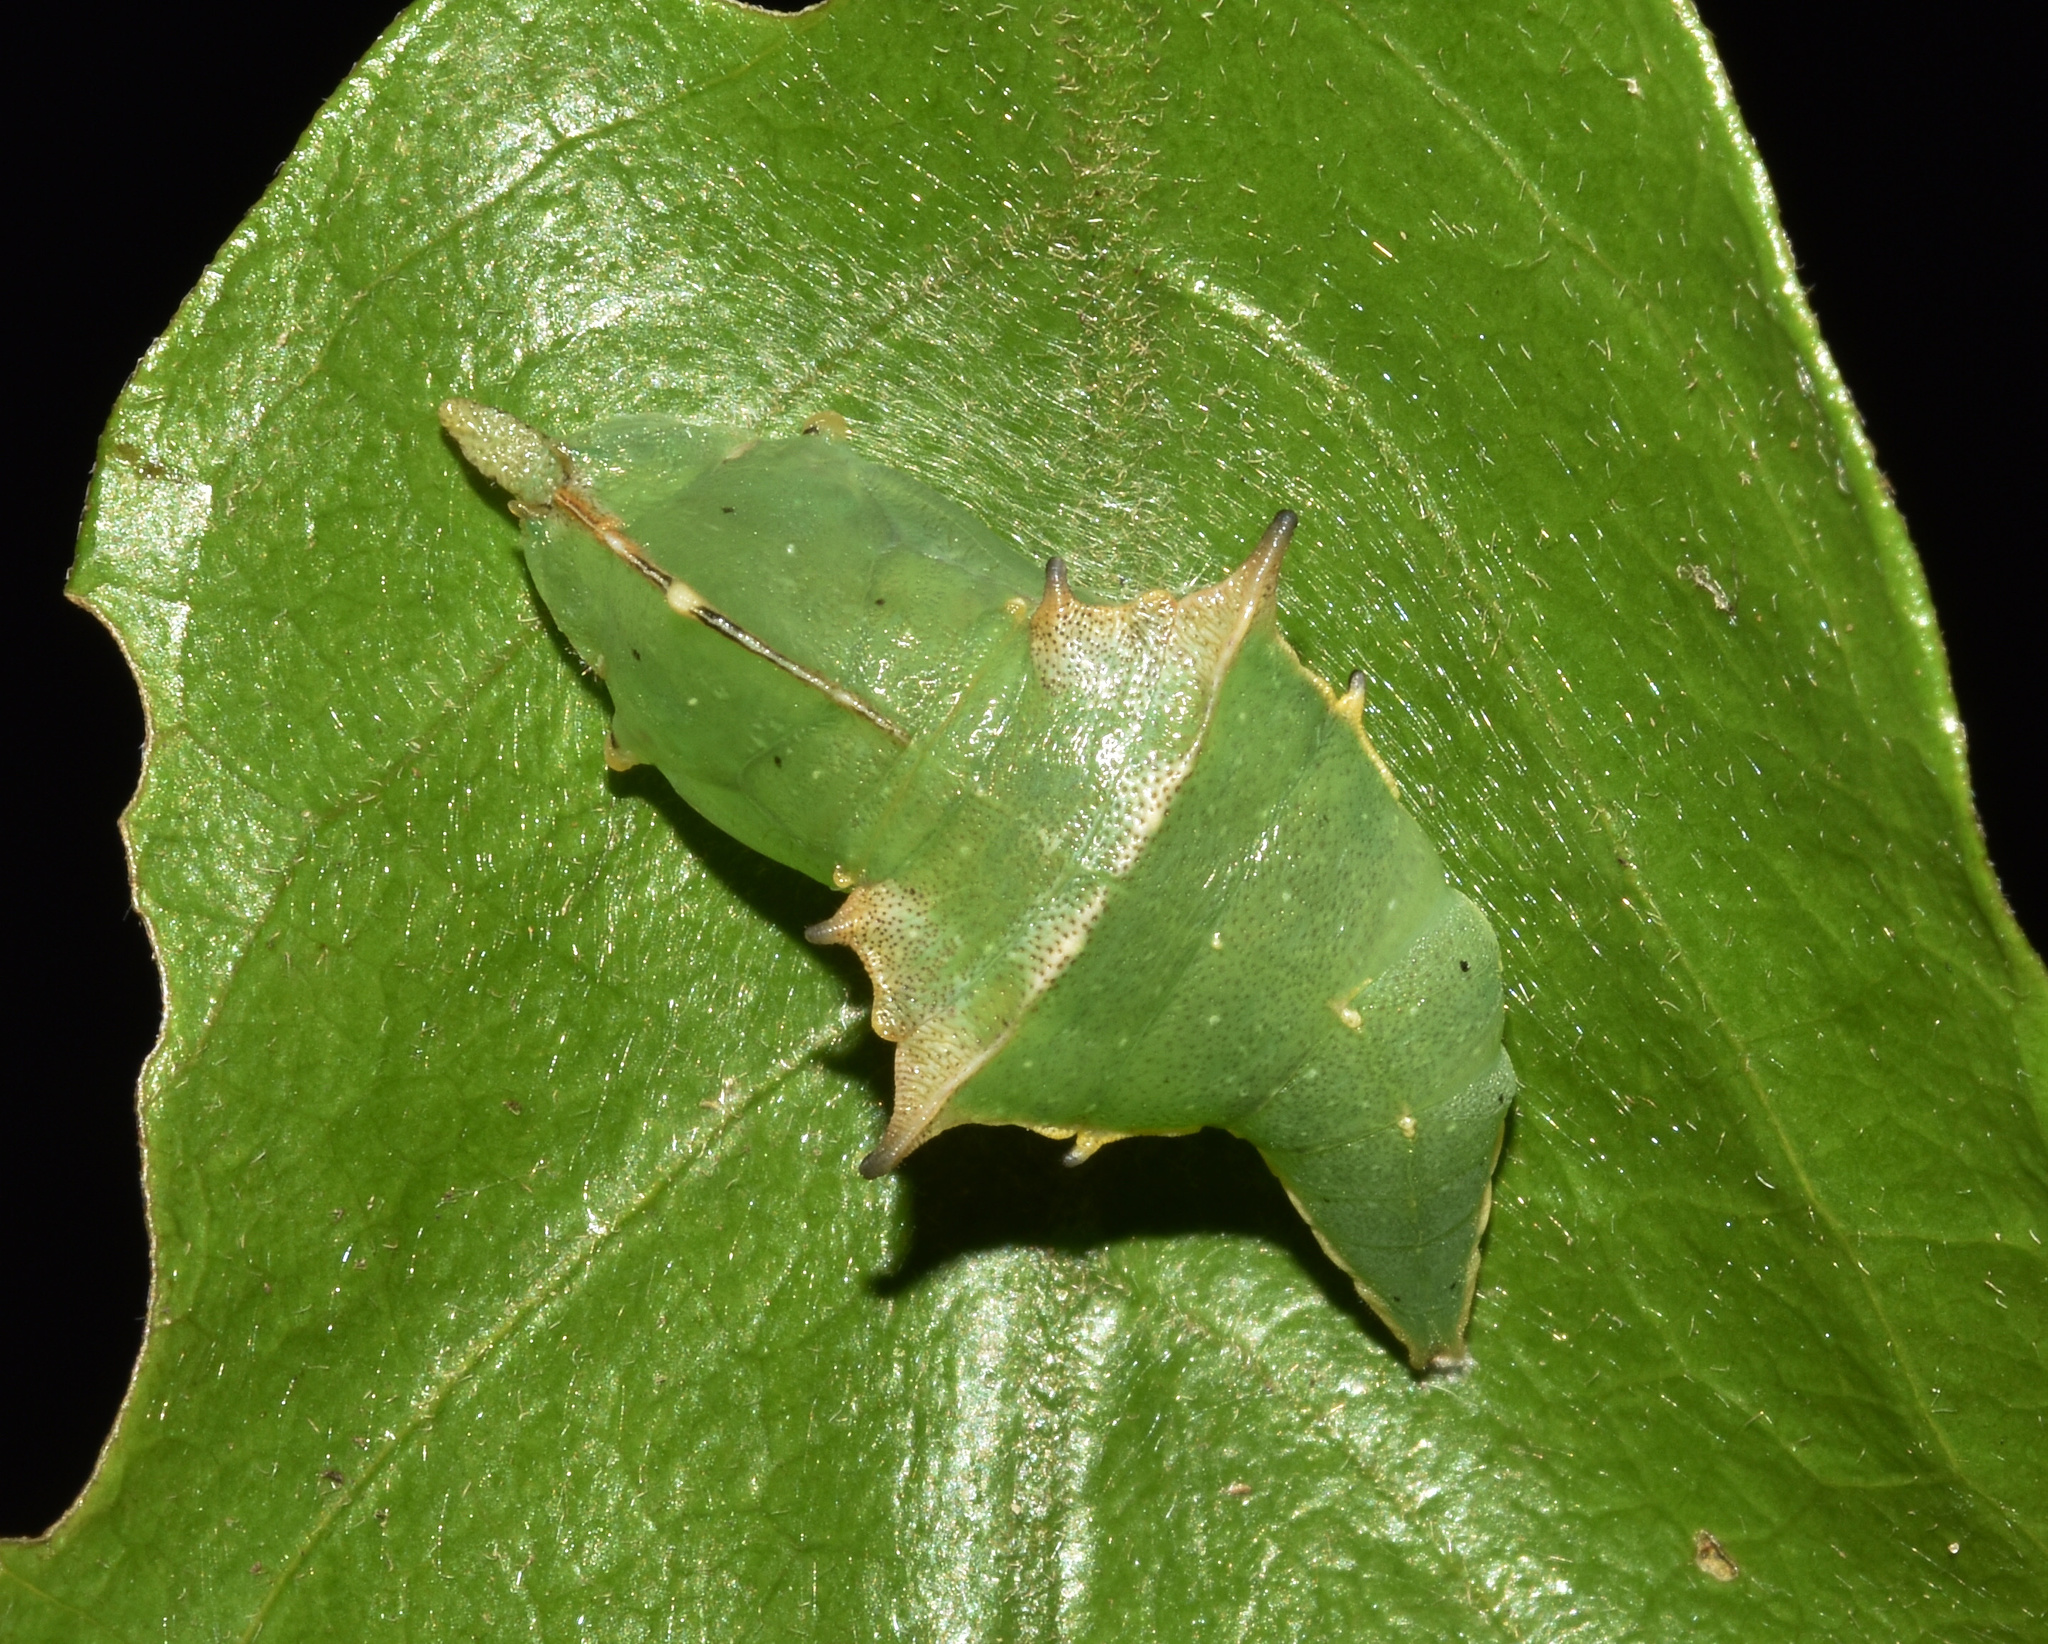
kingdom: Animalia
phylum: Arthropoda
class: Insecta
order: Lepidoptera
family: Pieridae
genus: Dixeia
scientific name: Dixeia pigea
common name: Ant-heap small white
